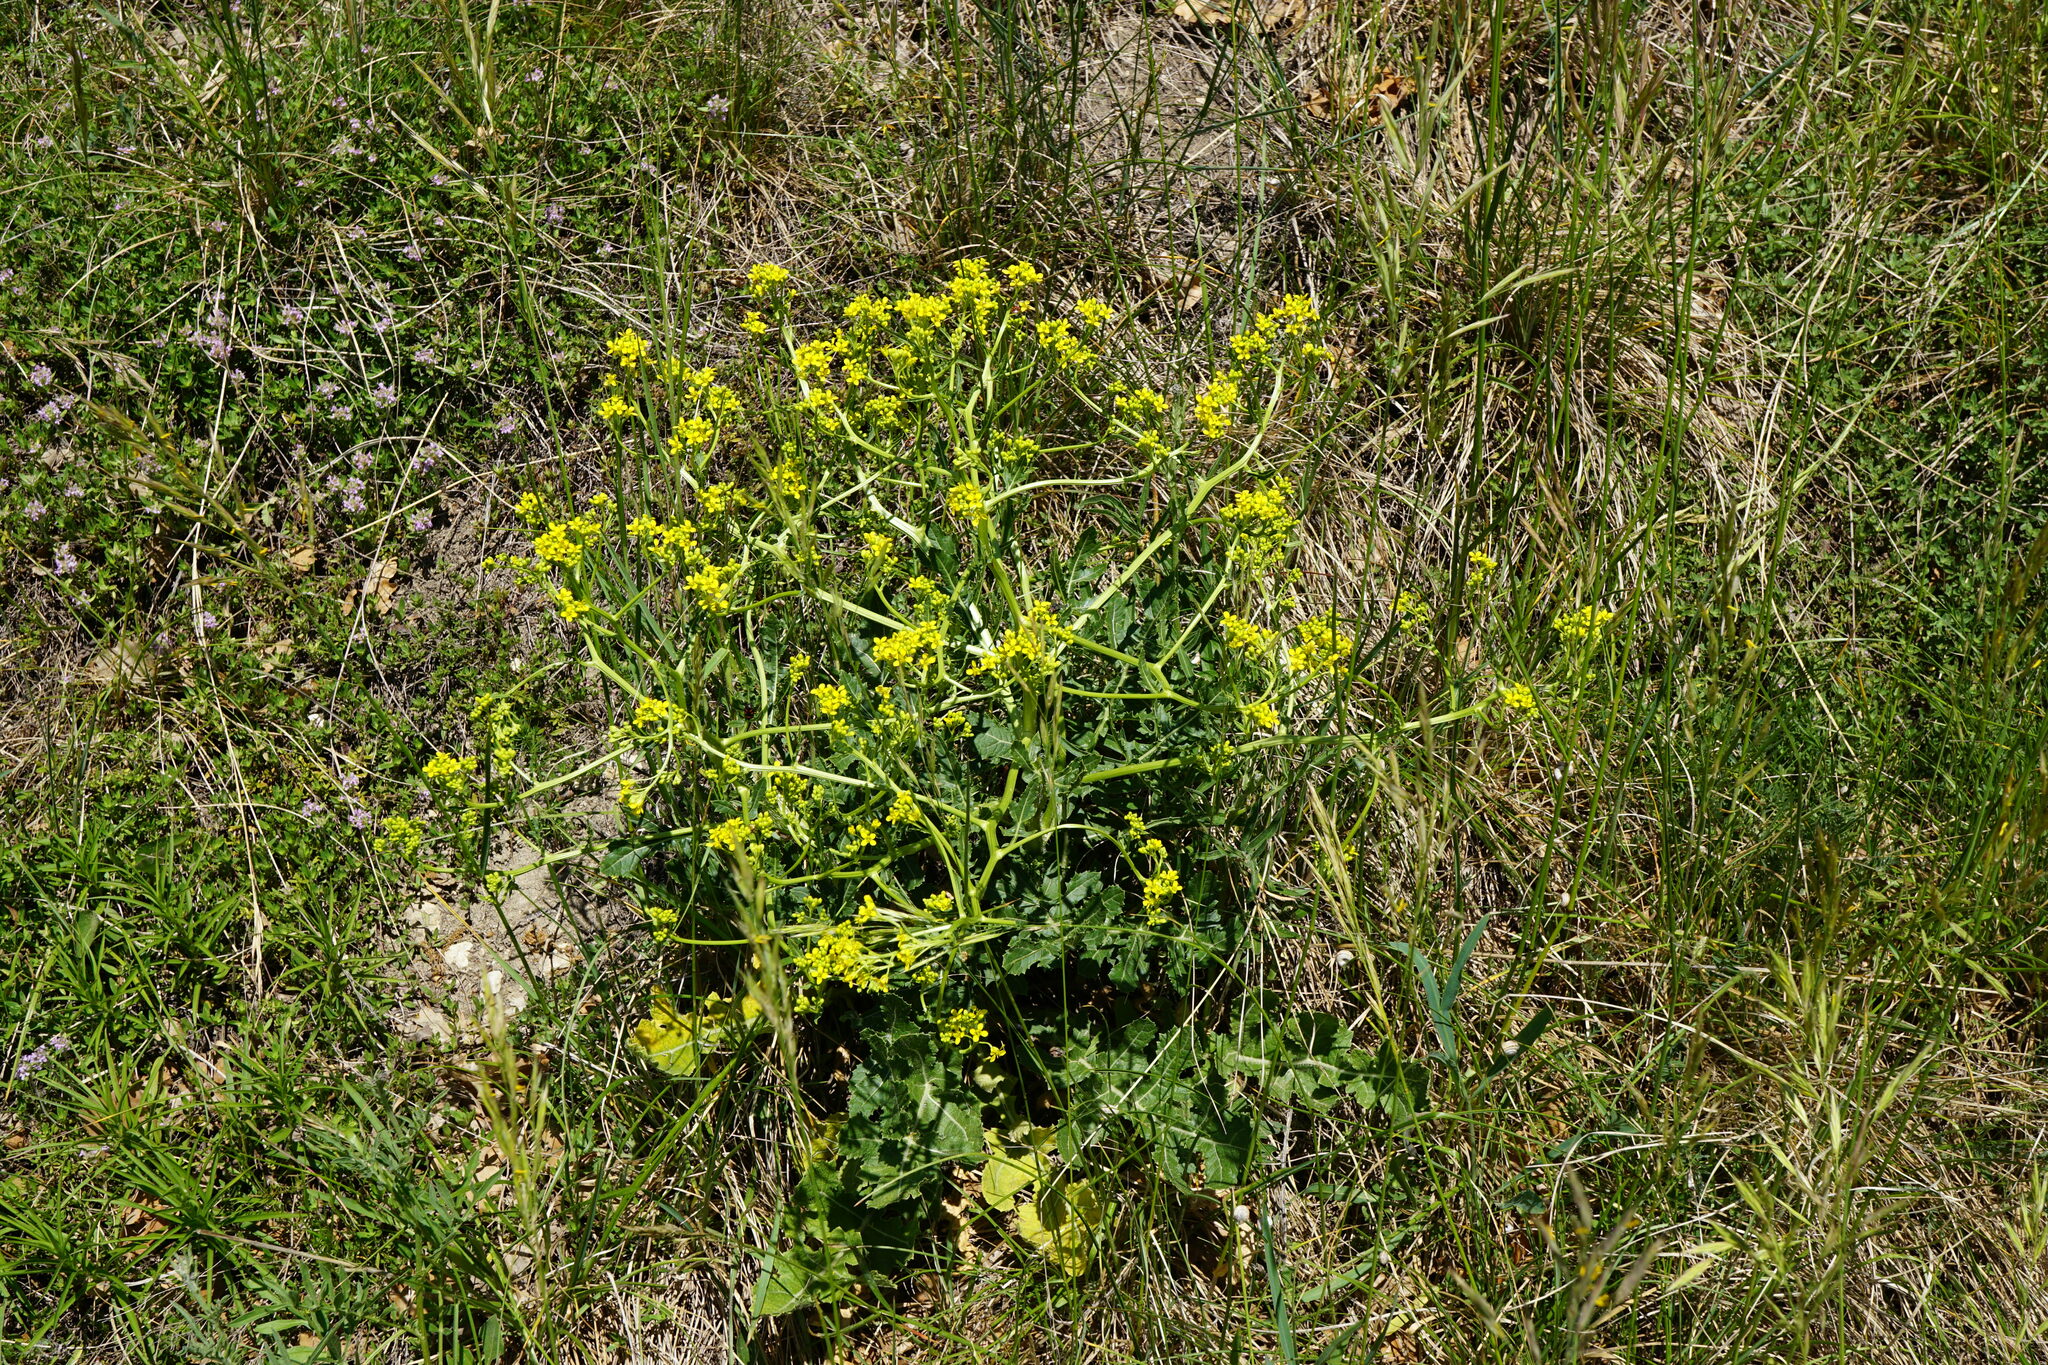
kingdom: Plantae
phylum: Tracheophyta
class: Magnoliopsida
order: Brassicales
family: Brassicaceae
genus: Rapistrum
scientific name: Rapistrum perenne
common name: Steppe cabbage
